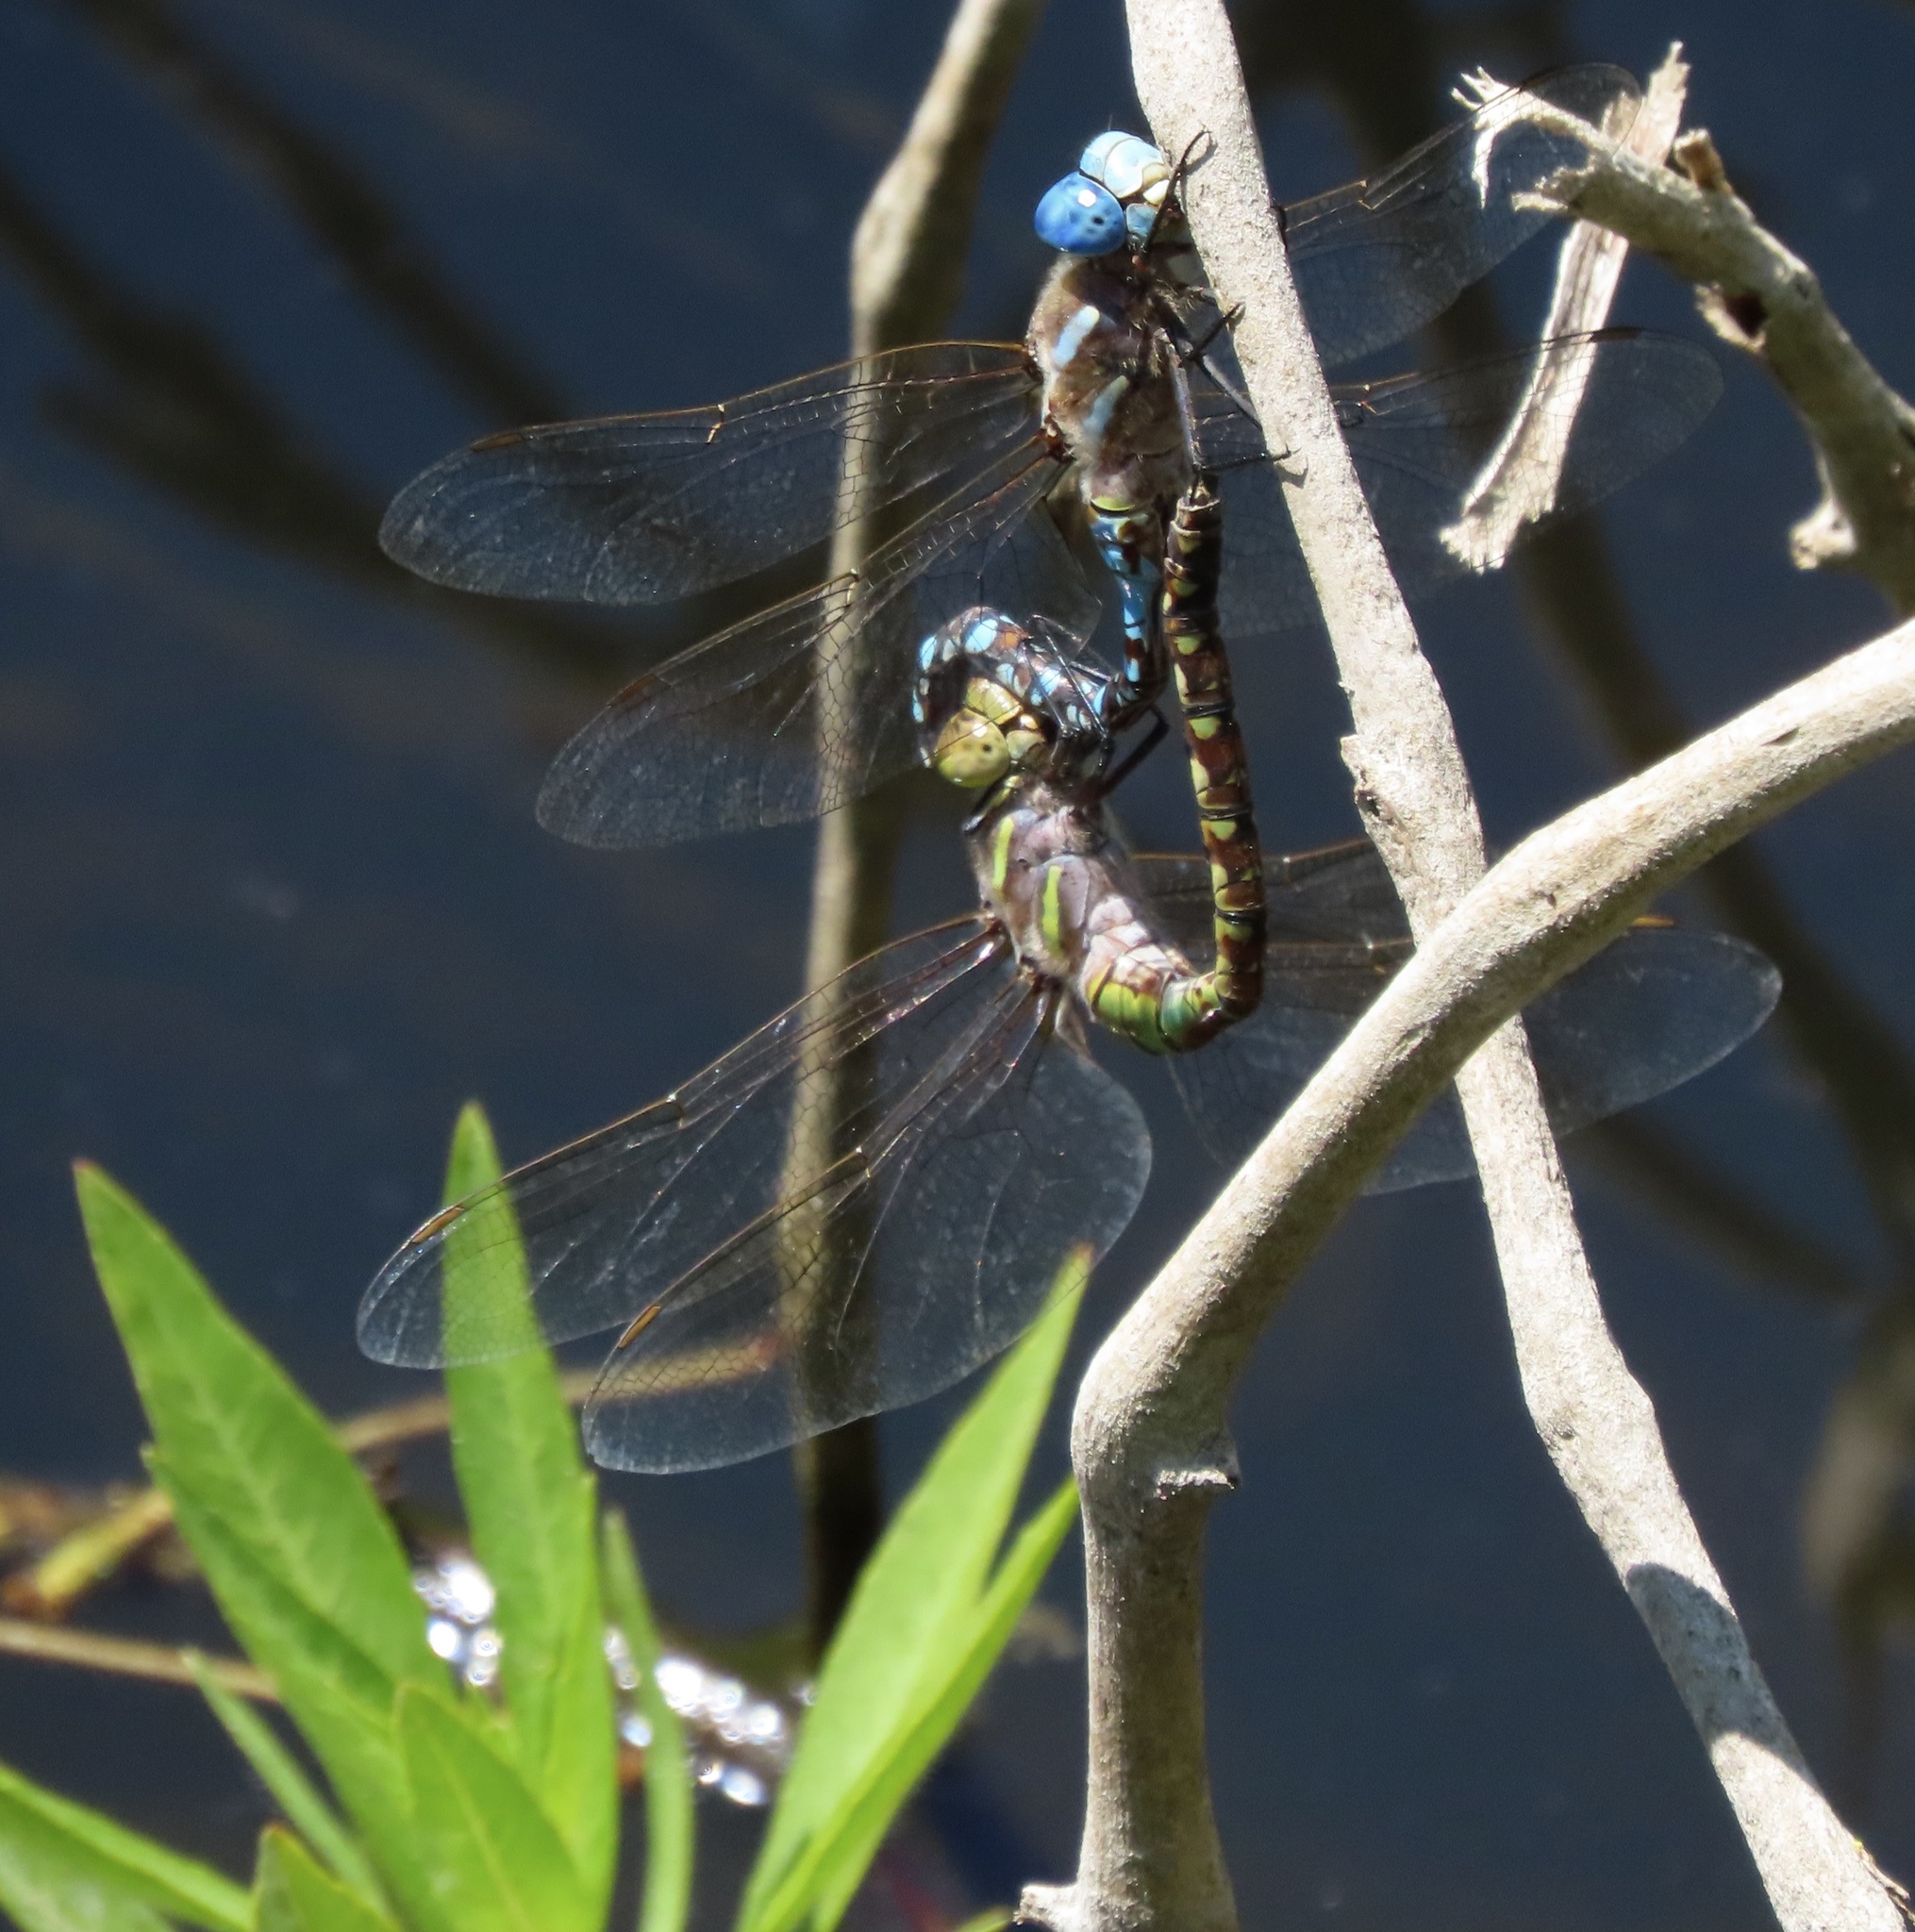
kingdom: Animalia
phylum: Arthropoda
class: Insecta
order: Odonata
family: Aeshnidae
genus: Rhionaeschna
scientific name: Rhionaeschna multicolor
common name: Blue-eyed darner
